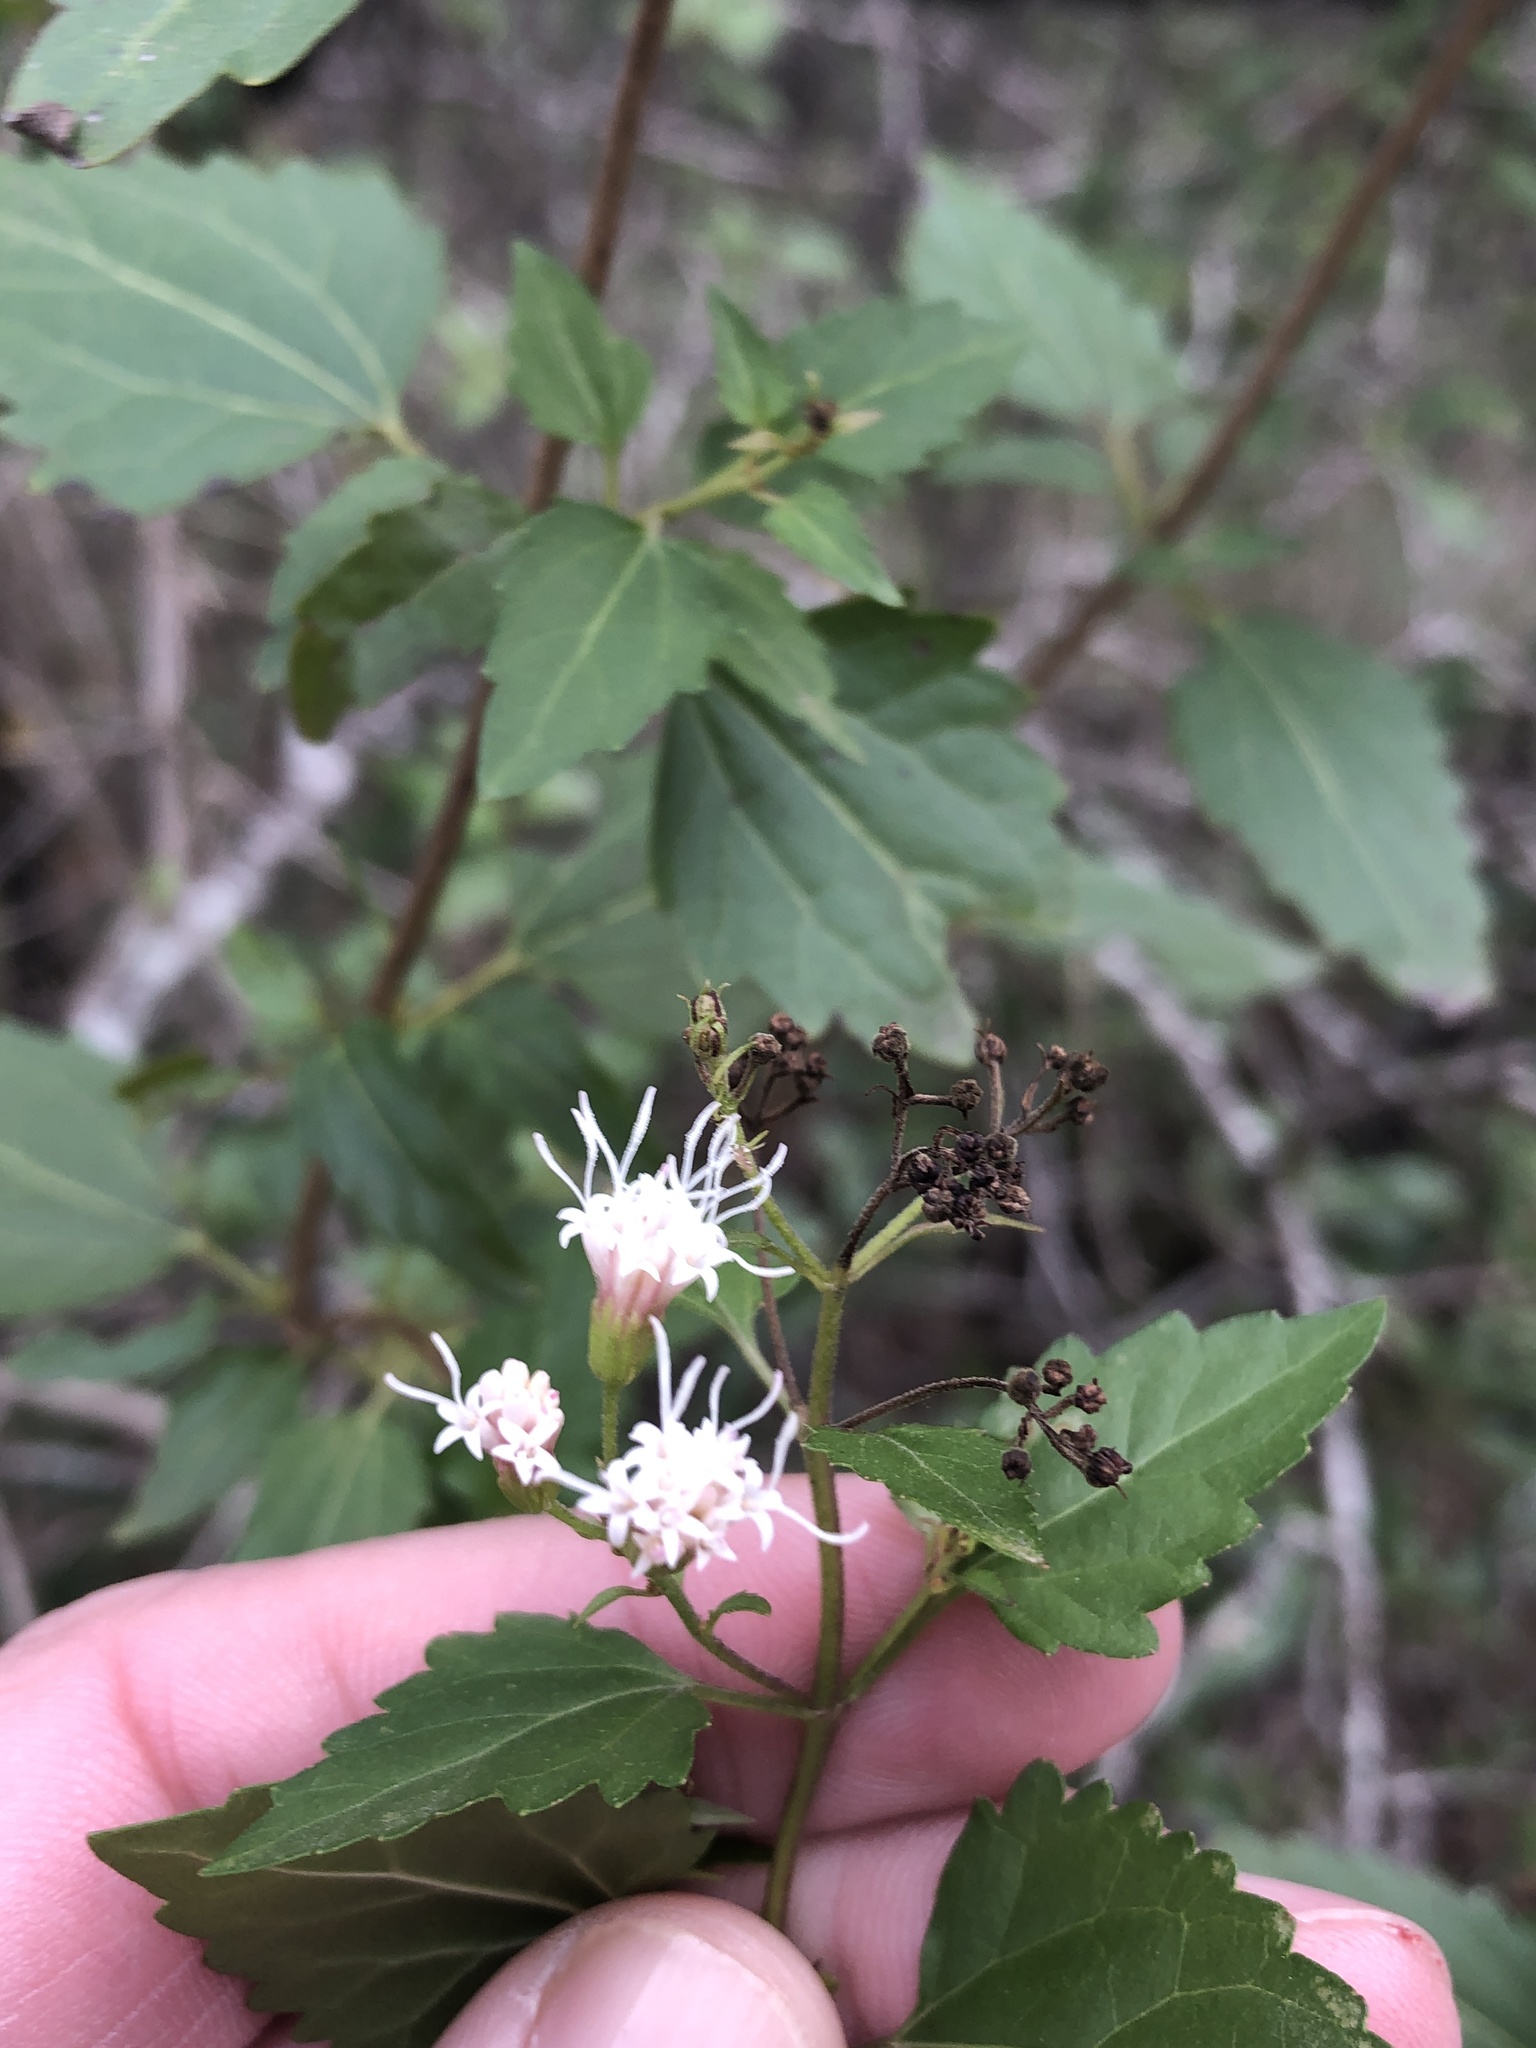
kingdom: Plantae
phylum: Tracheophyta
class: Magnoliopsida
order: Asterales
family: Asteraceae
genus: Ageratina
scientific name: Ageratina havanensis
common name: Havana snakeroot
